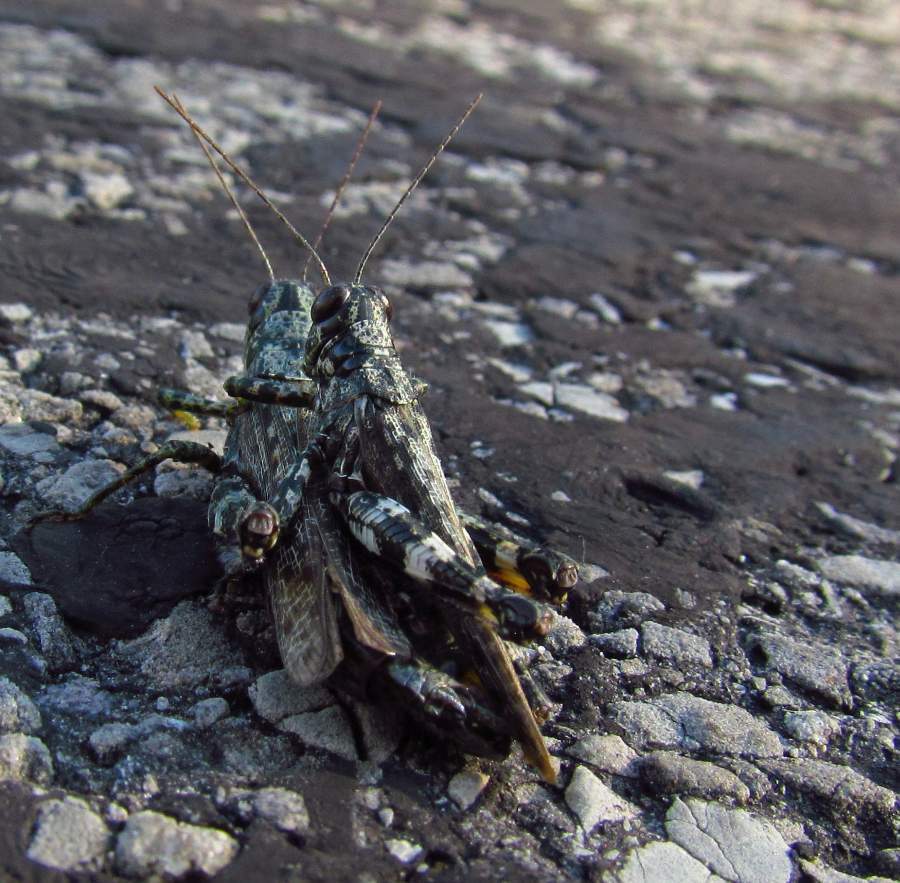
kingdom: Animalia
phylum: Arthropoda
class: Insecta
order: Orthoptera
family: Acrididae
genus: Melanoplus
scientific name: Melanoplus punctulatus
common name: Pine-tree spur-throat grasshopper
